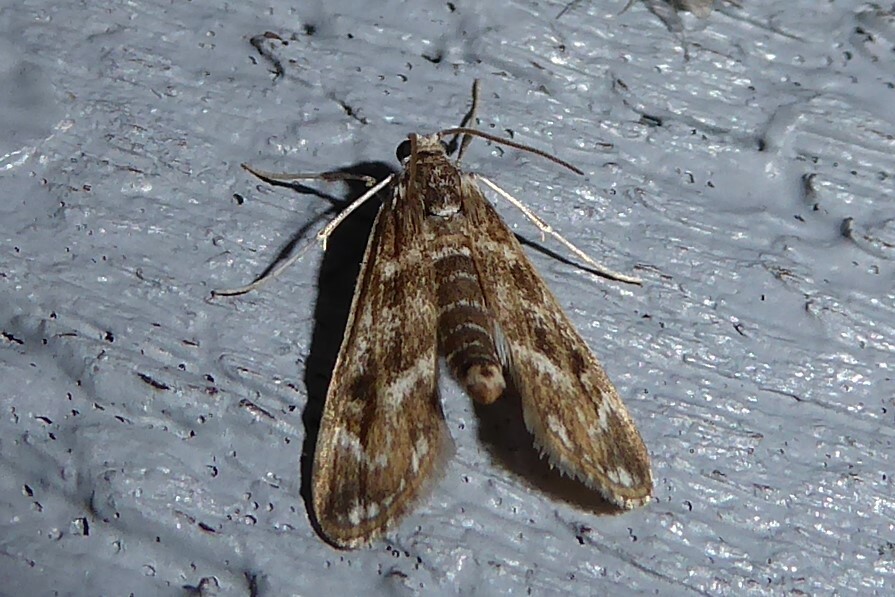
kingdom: Animalia
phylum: Arthropoda
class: Insecta
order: Lepidoptera
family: Crambidae
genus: Hygraula
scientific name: Hygraula nitens
